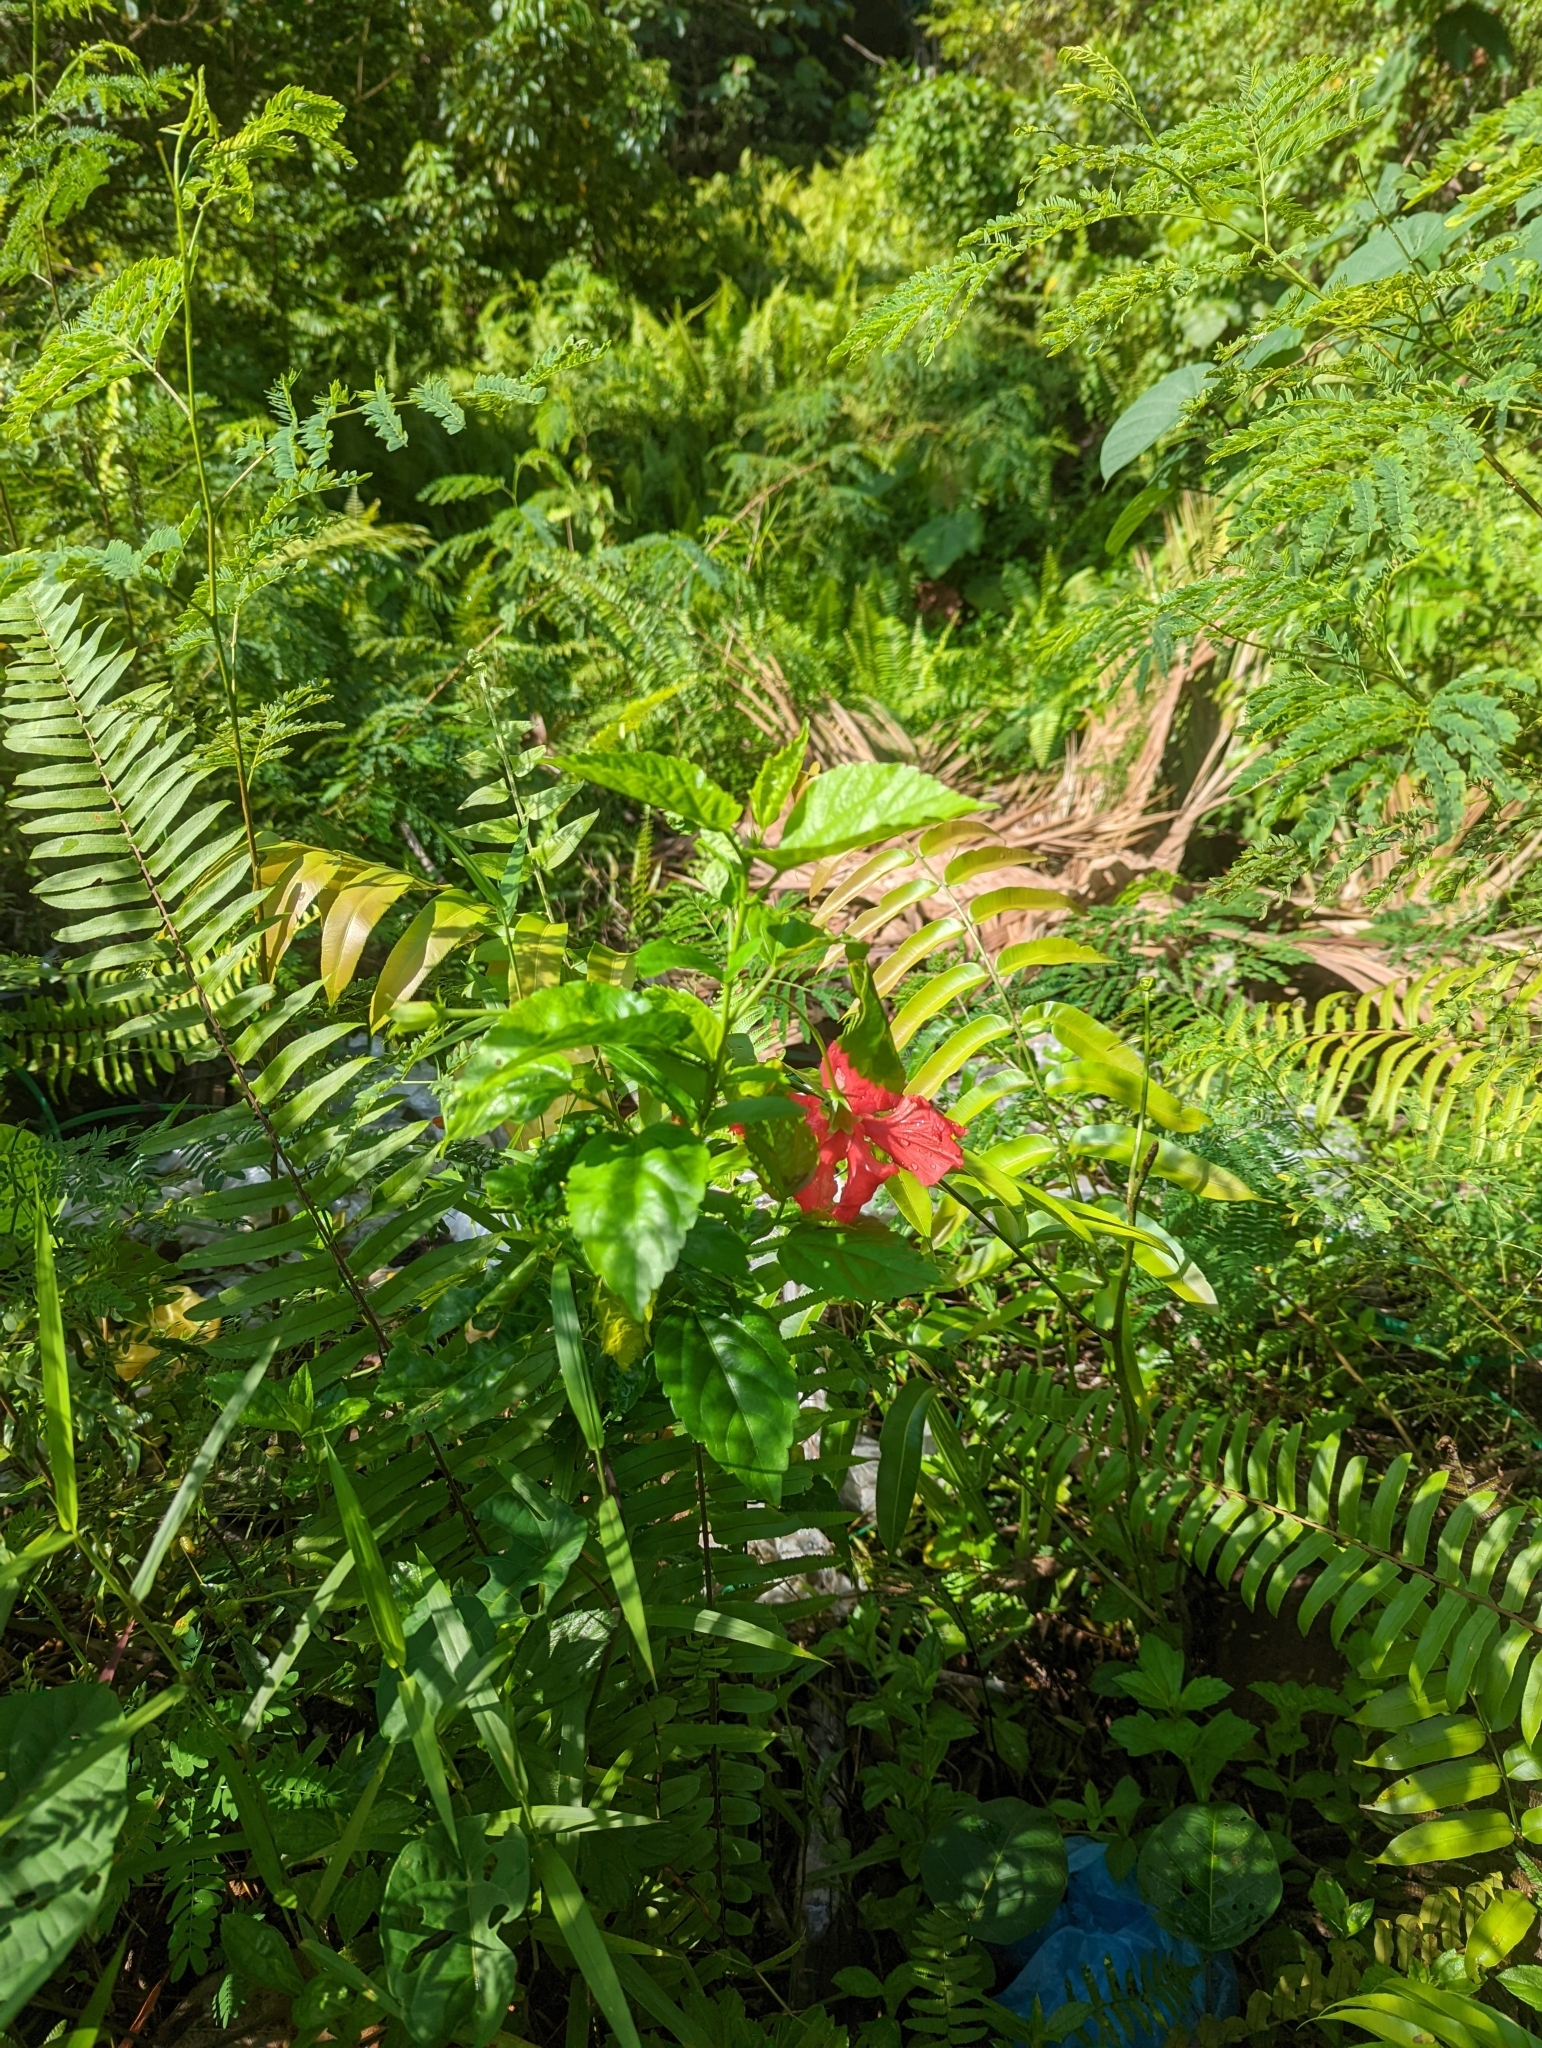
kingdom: Plantae
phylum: Tracheophyta
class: Magnoliopsida
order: Malvales
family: Malvaceae
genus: Hibiscus
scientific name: Hibiscus archeri
